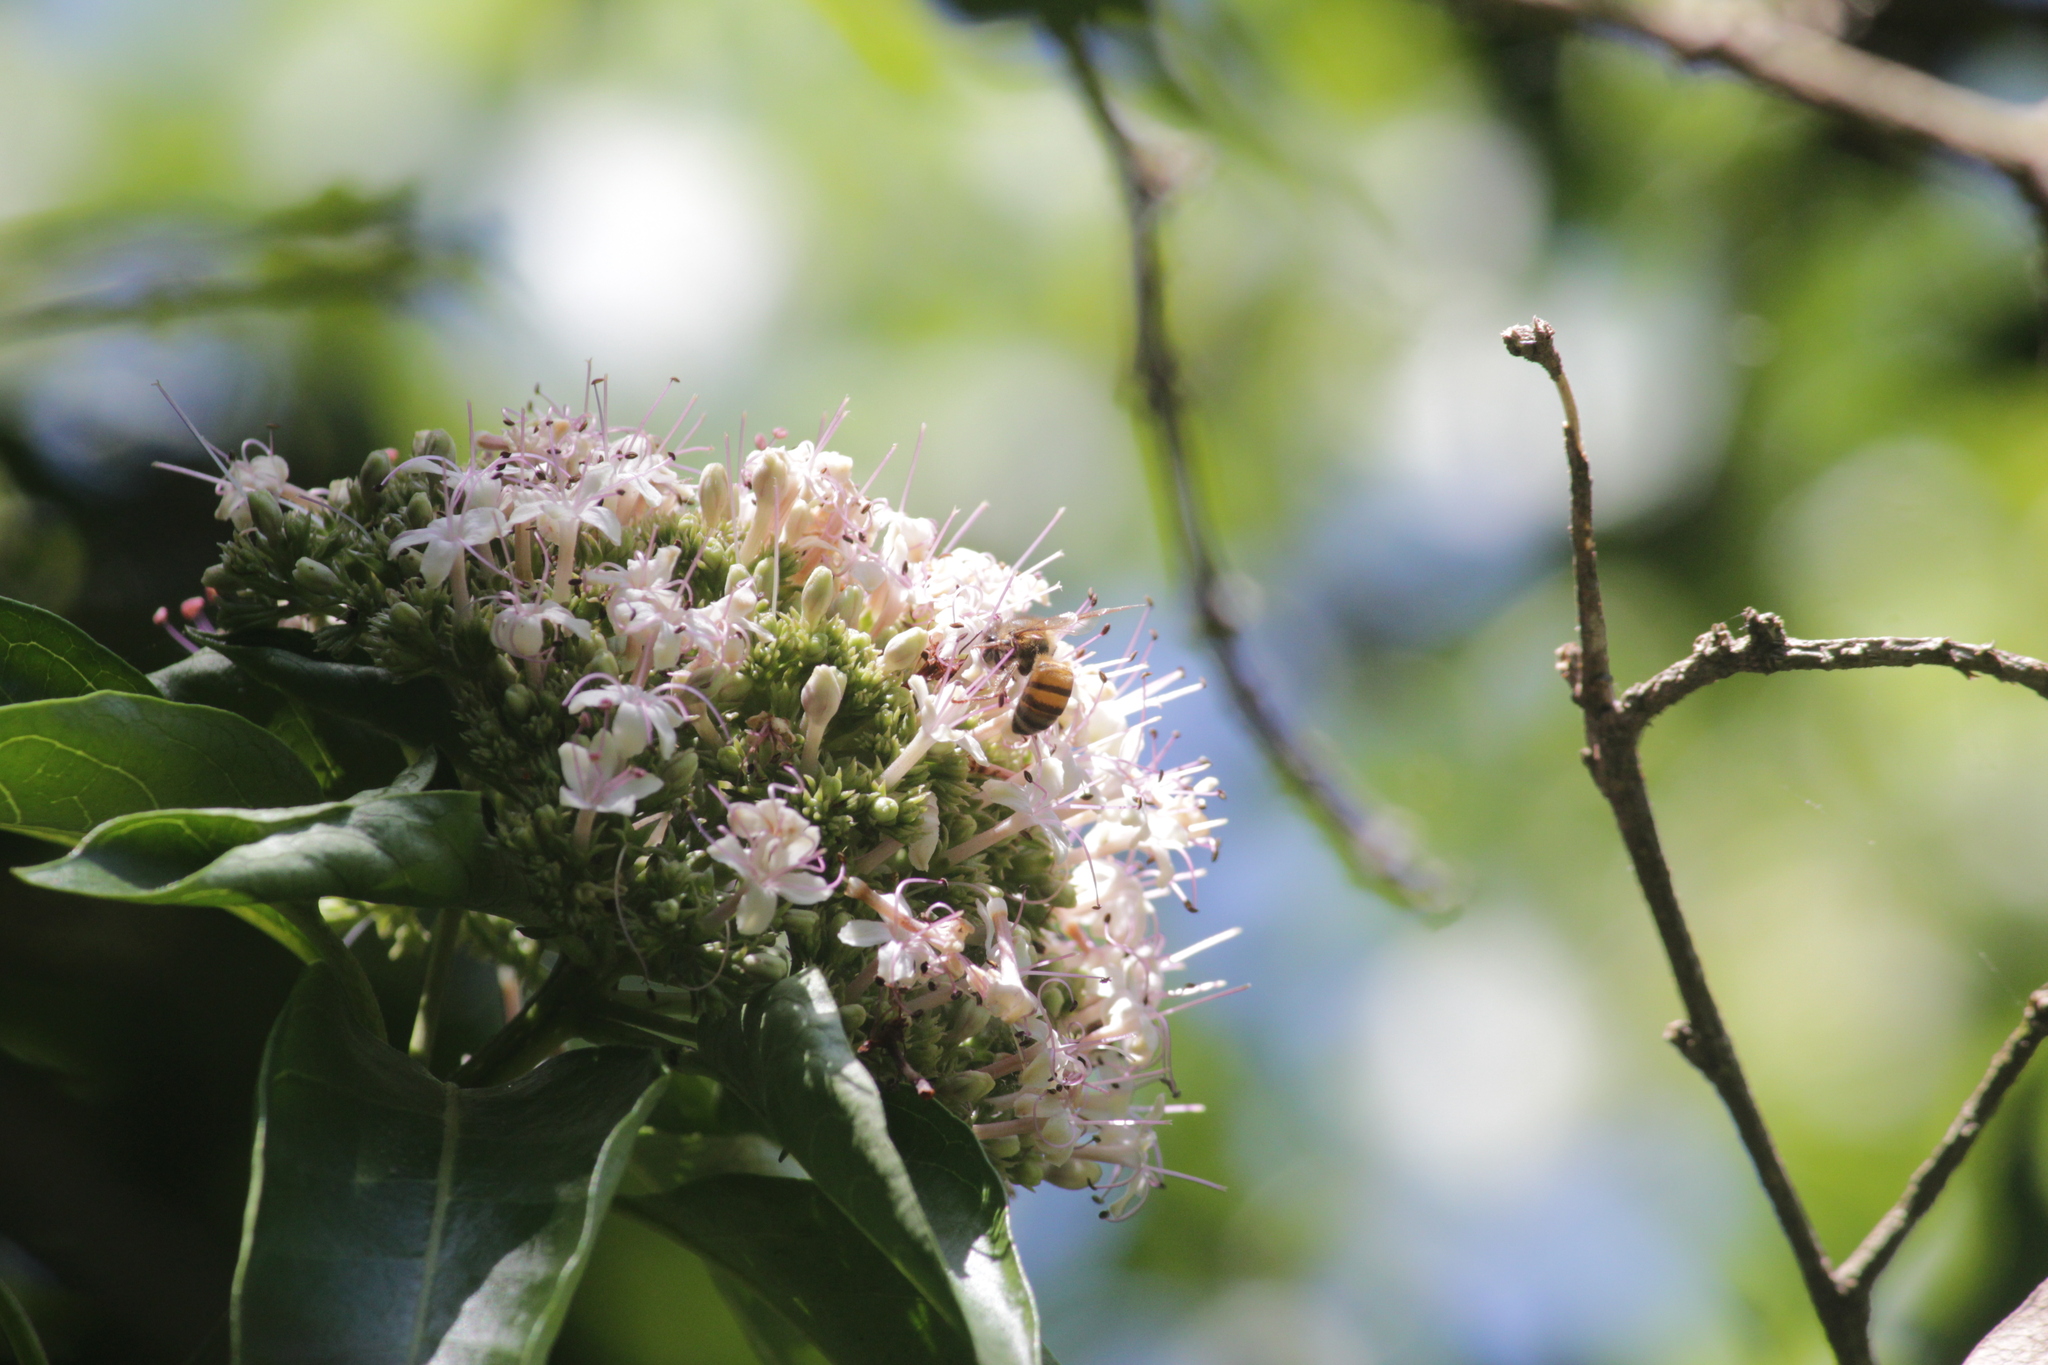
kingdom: Animalia
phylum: Arthropoda
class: Insecta
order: Hymenoptera
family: Apidae
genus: Apis
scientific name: Apis mellifera
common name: Honey bee
